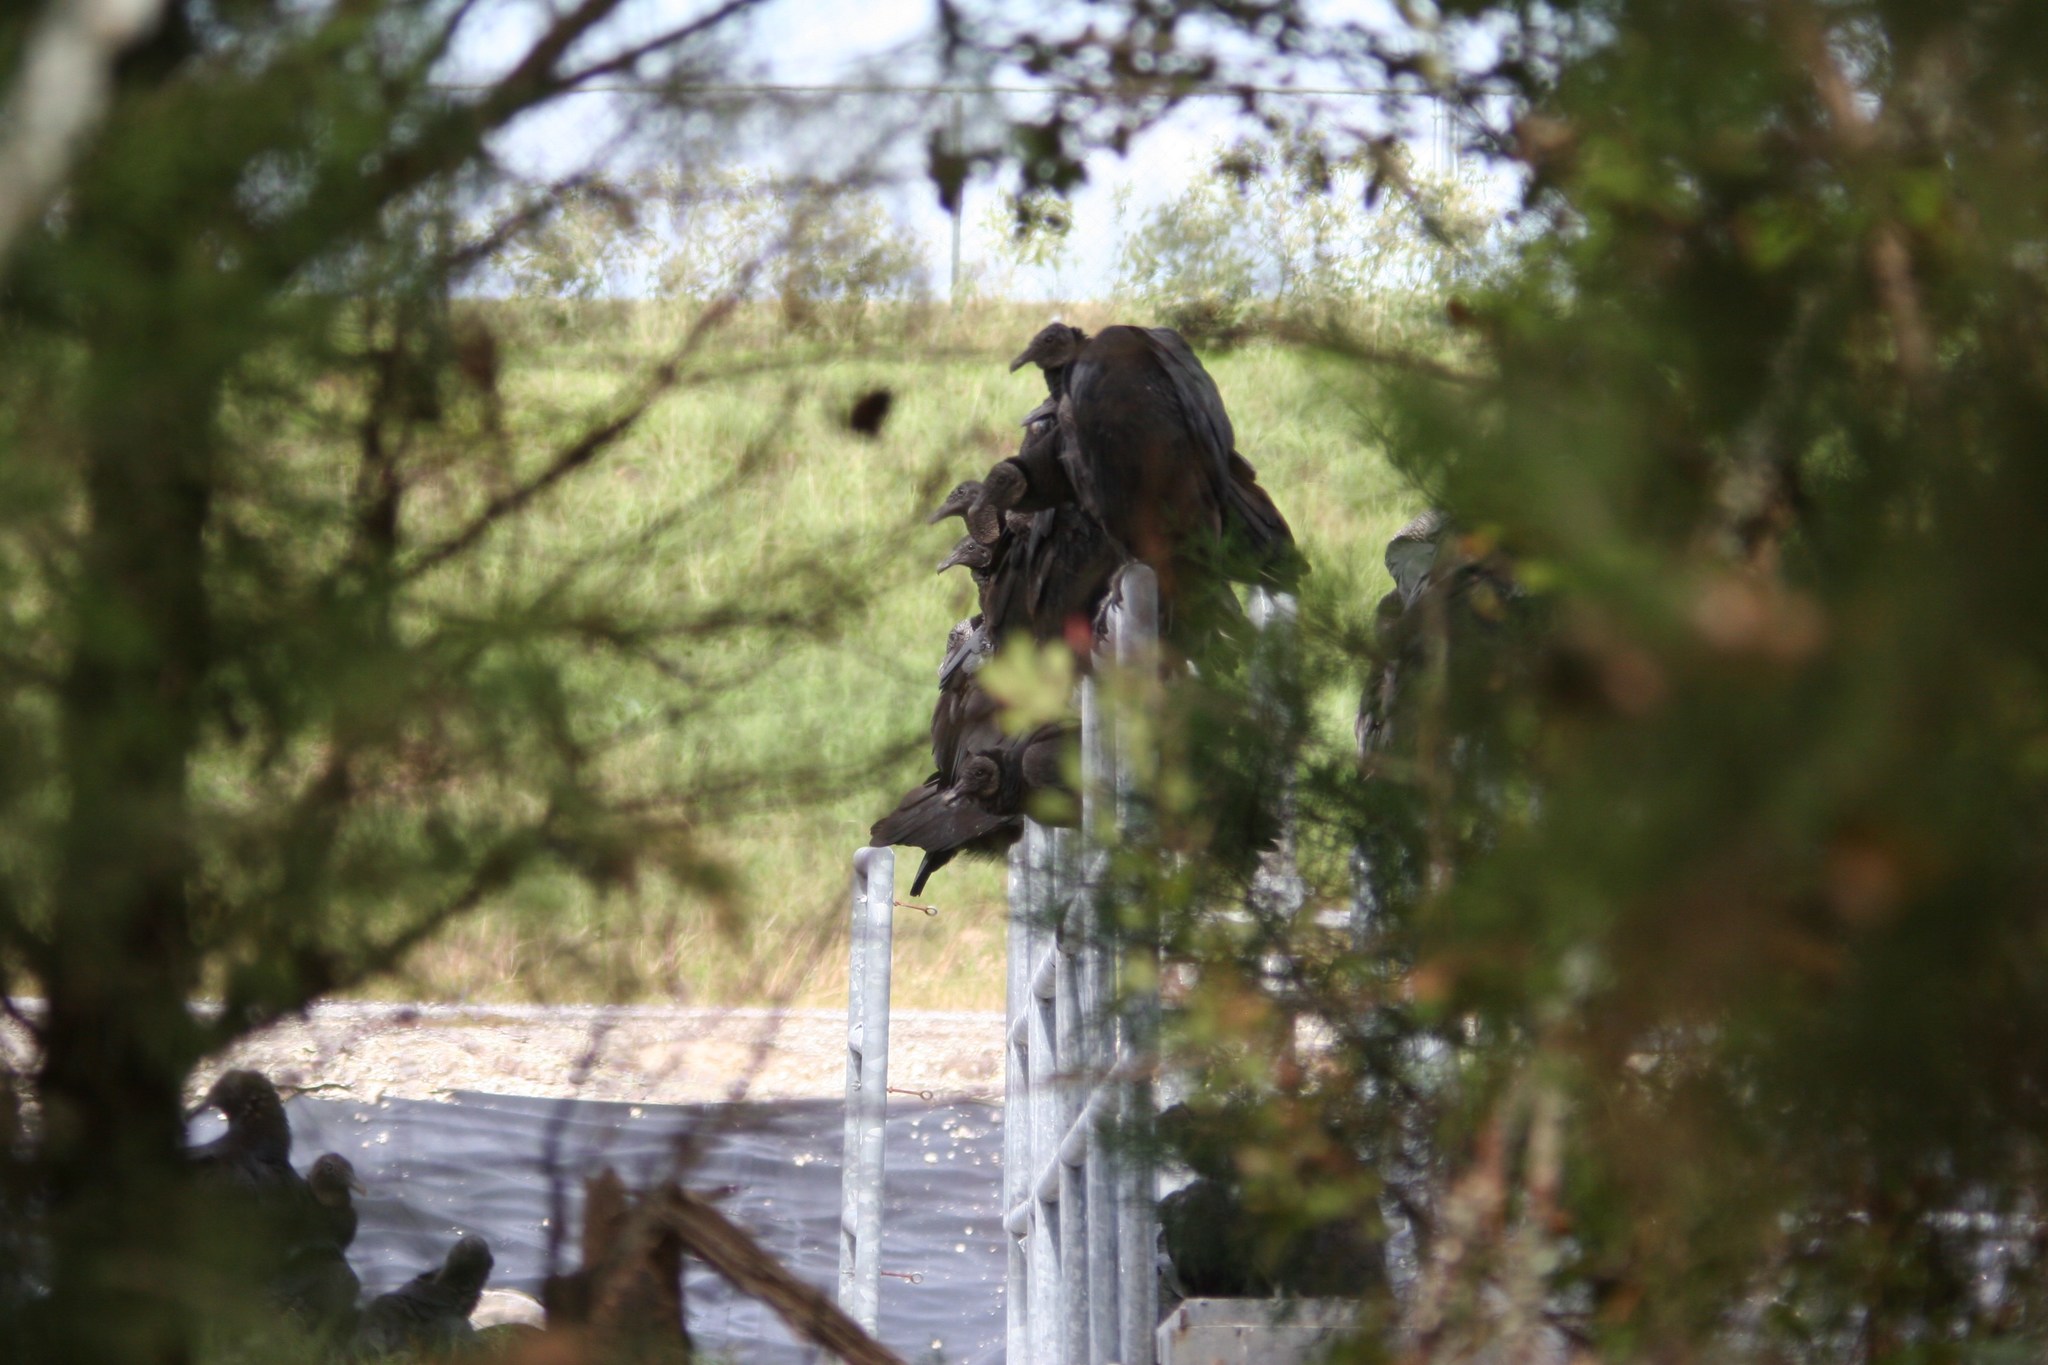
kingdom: Animalia
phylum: Chordata
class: Aves
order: Accipitriformes
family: Cathartidae
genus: Coragyps
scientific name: Coragyps atratus
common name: Black vulture
